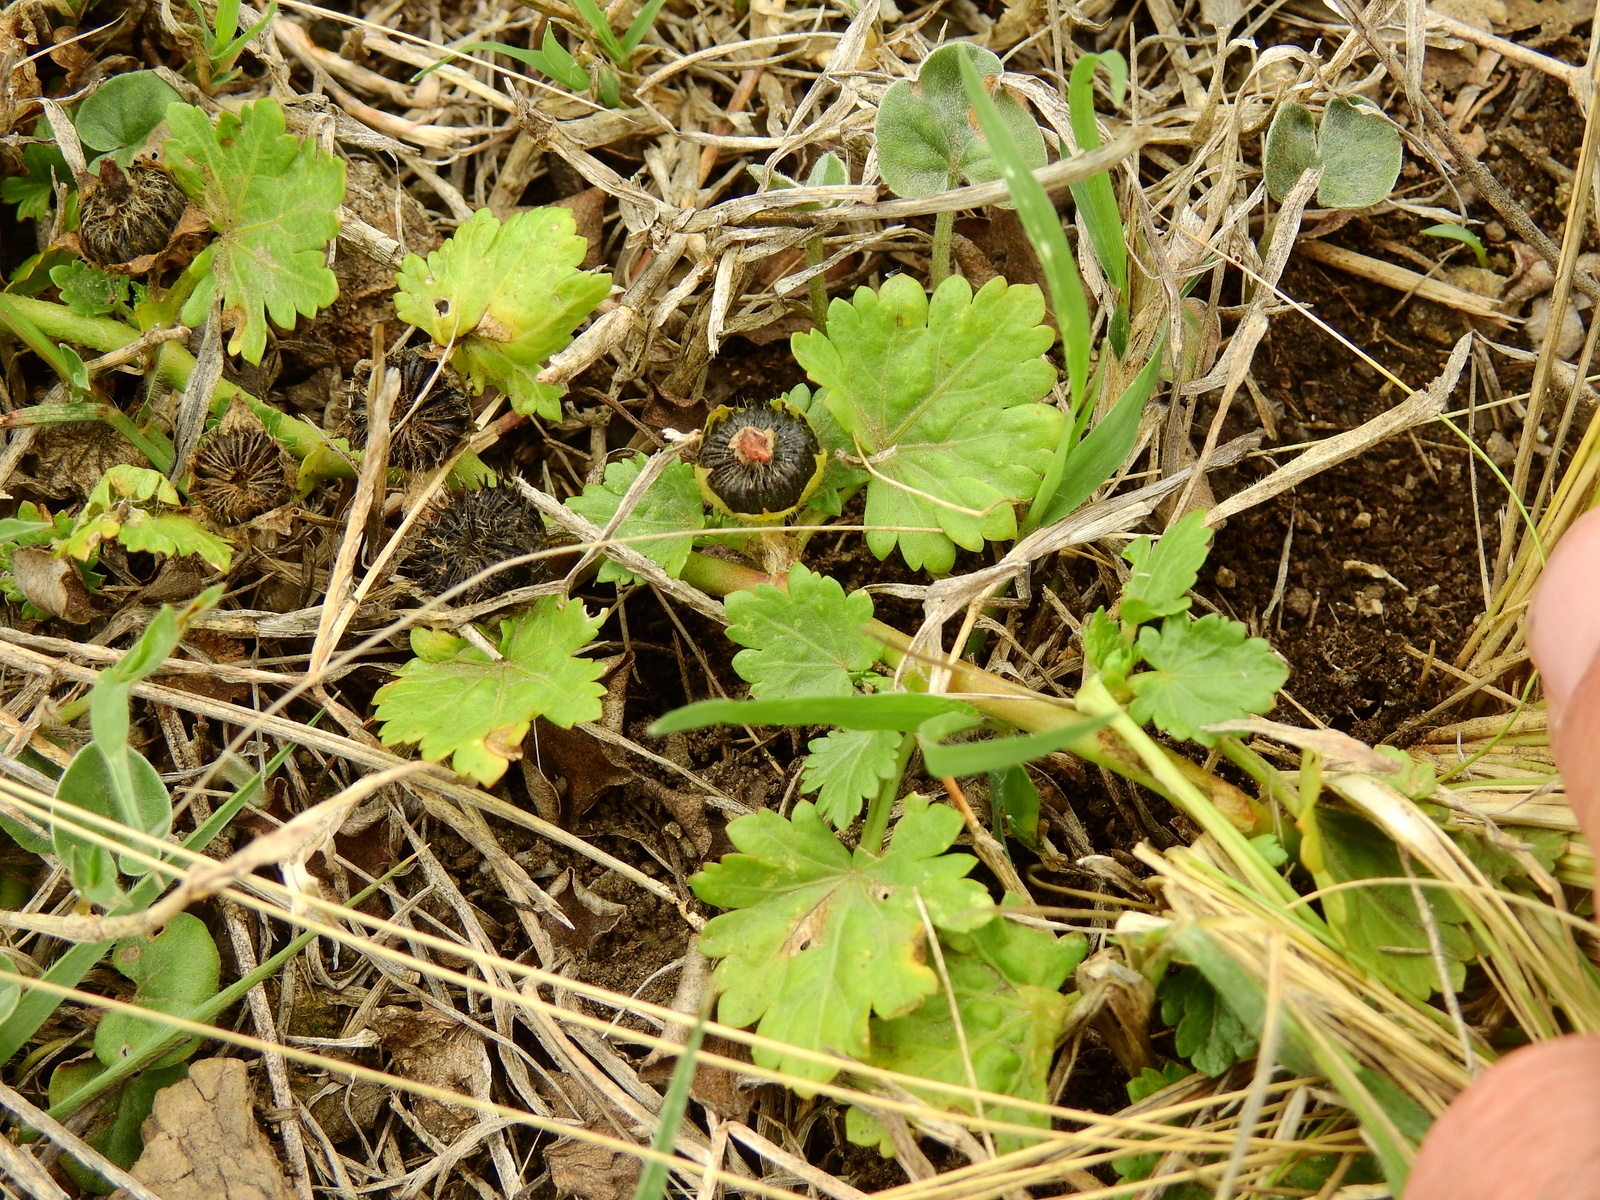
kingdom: Plantae
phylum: Tracheophyta
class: Magnoliopsida
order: Malvales
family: Malvaceae
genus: Modiola
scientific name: Modiola caroliniana
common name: Carolina bristlemallow
